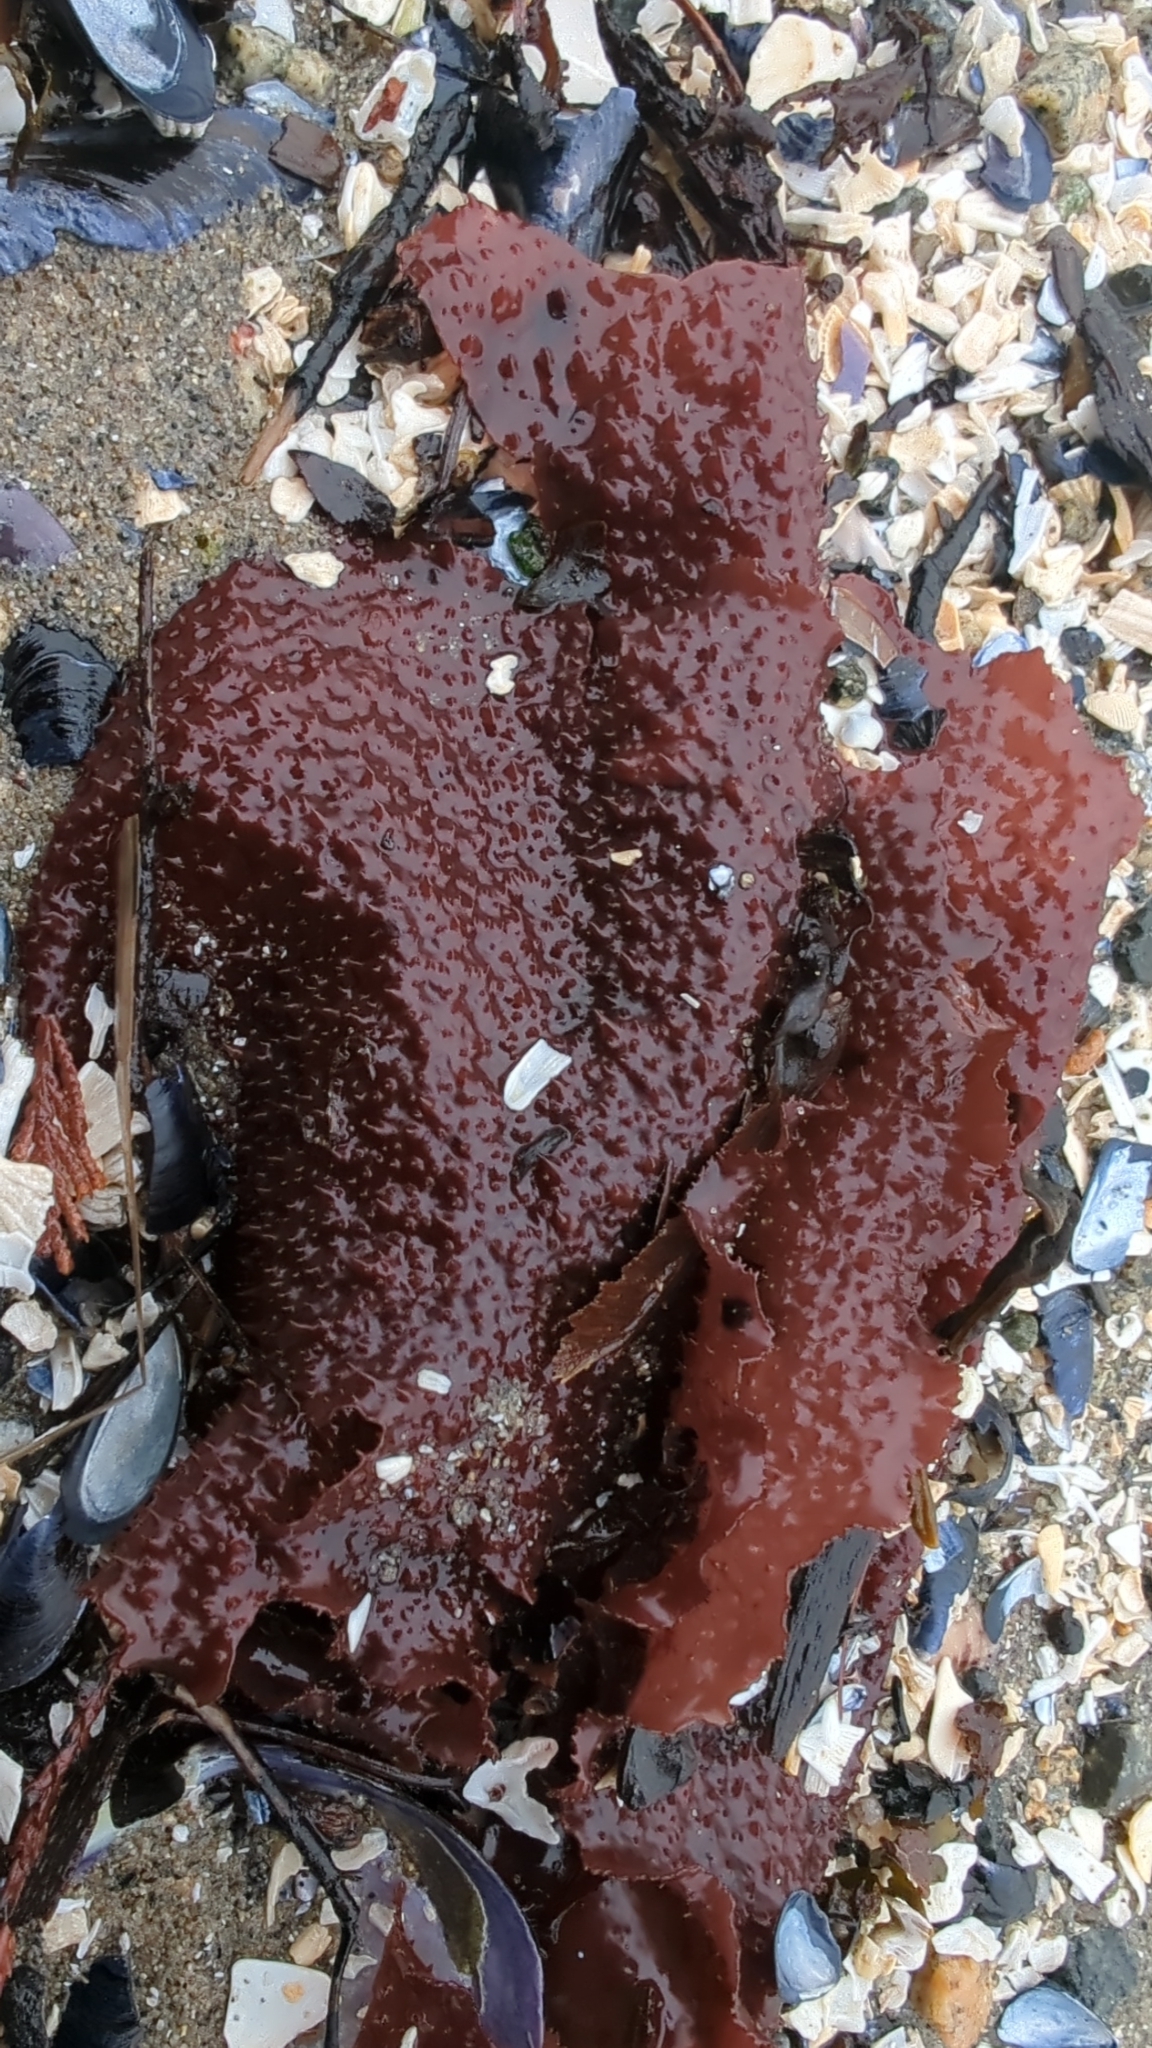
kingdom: Plantae
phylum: Rhodophyta
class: Florideophyceae
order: Gigartinales
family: Gigartinaceae
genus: Chondracanthus
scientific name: Chondracanthus exasperatus
